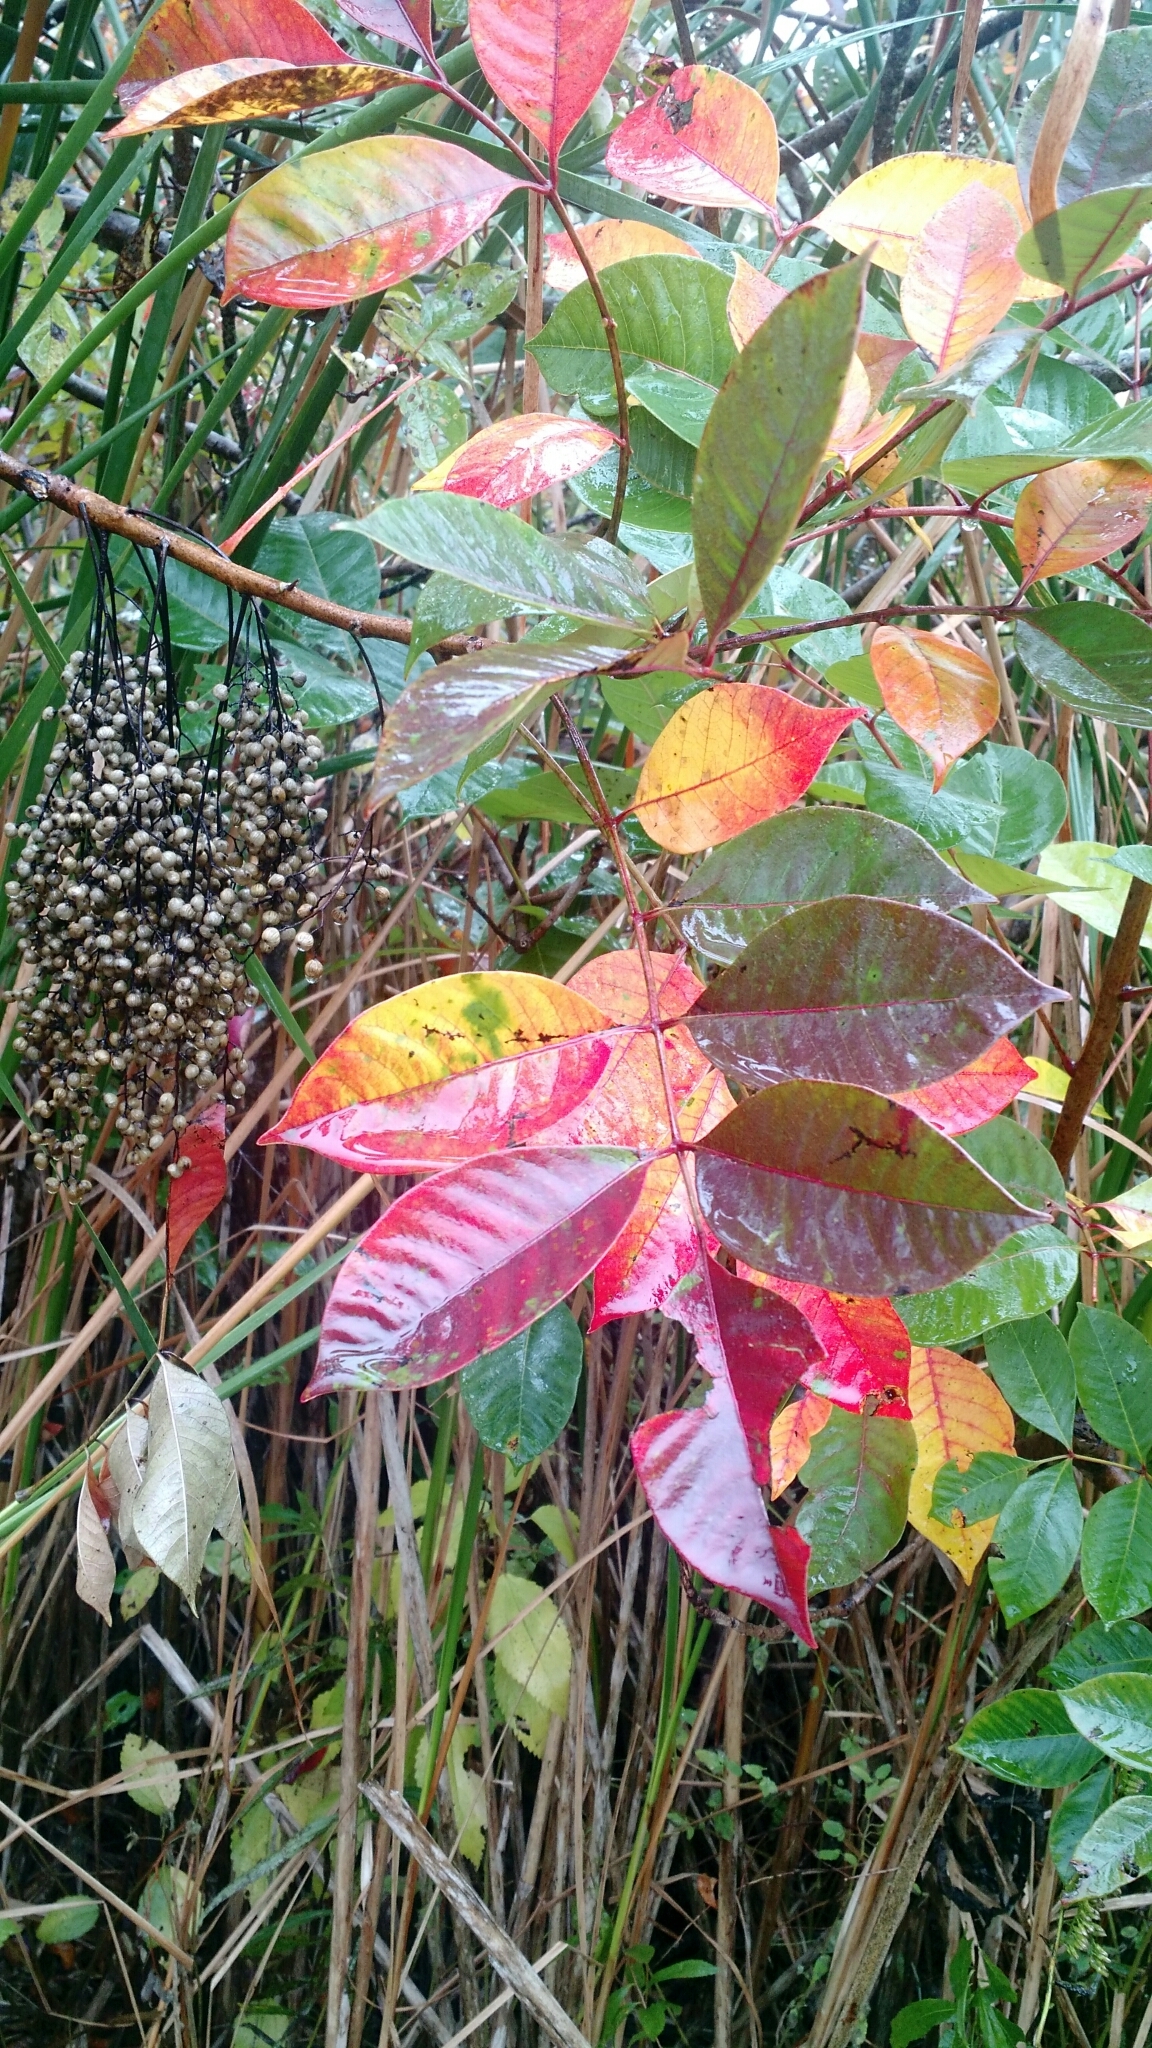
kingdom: Plantae
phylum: Tracheophyta
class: Magnoliopsida
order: Sapindales
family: Anacardiaceae
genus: Toxicodendron
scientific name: Toxicodendron vernix
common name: Poison sumac
